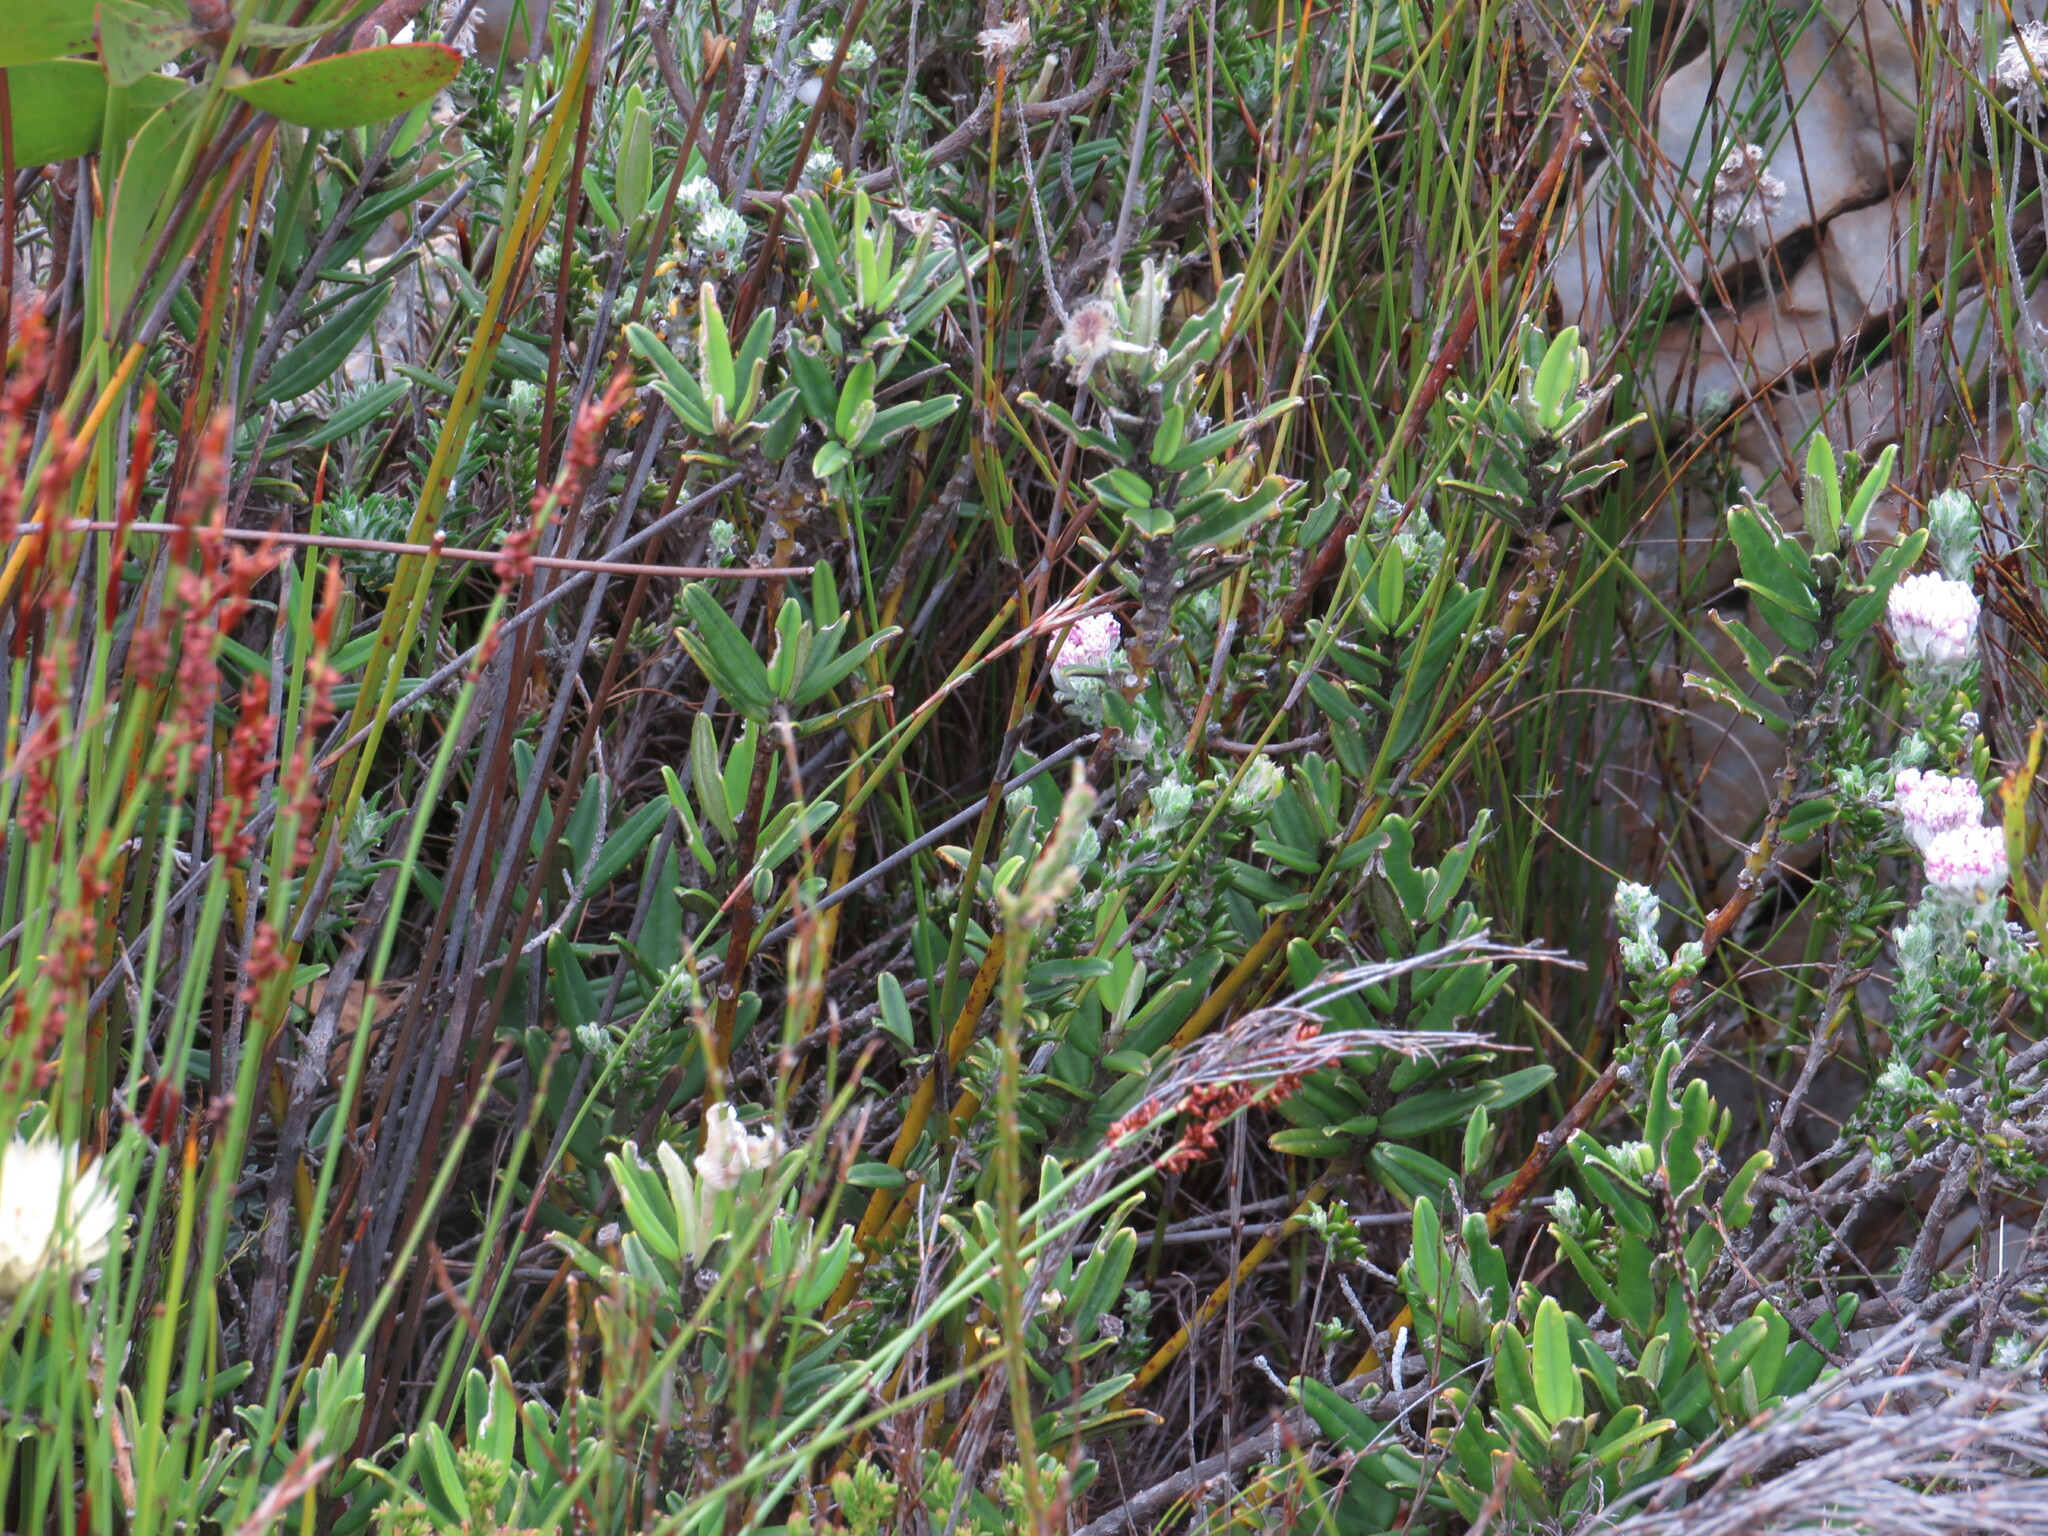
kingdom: Plantae
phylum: Tracheophyta
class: Magnoliopsida
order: Fabales
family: Fabaceae
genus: Podalyria
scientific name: Podalyria oleifolia
